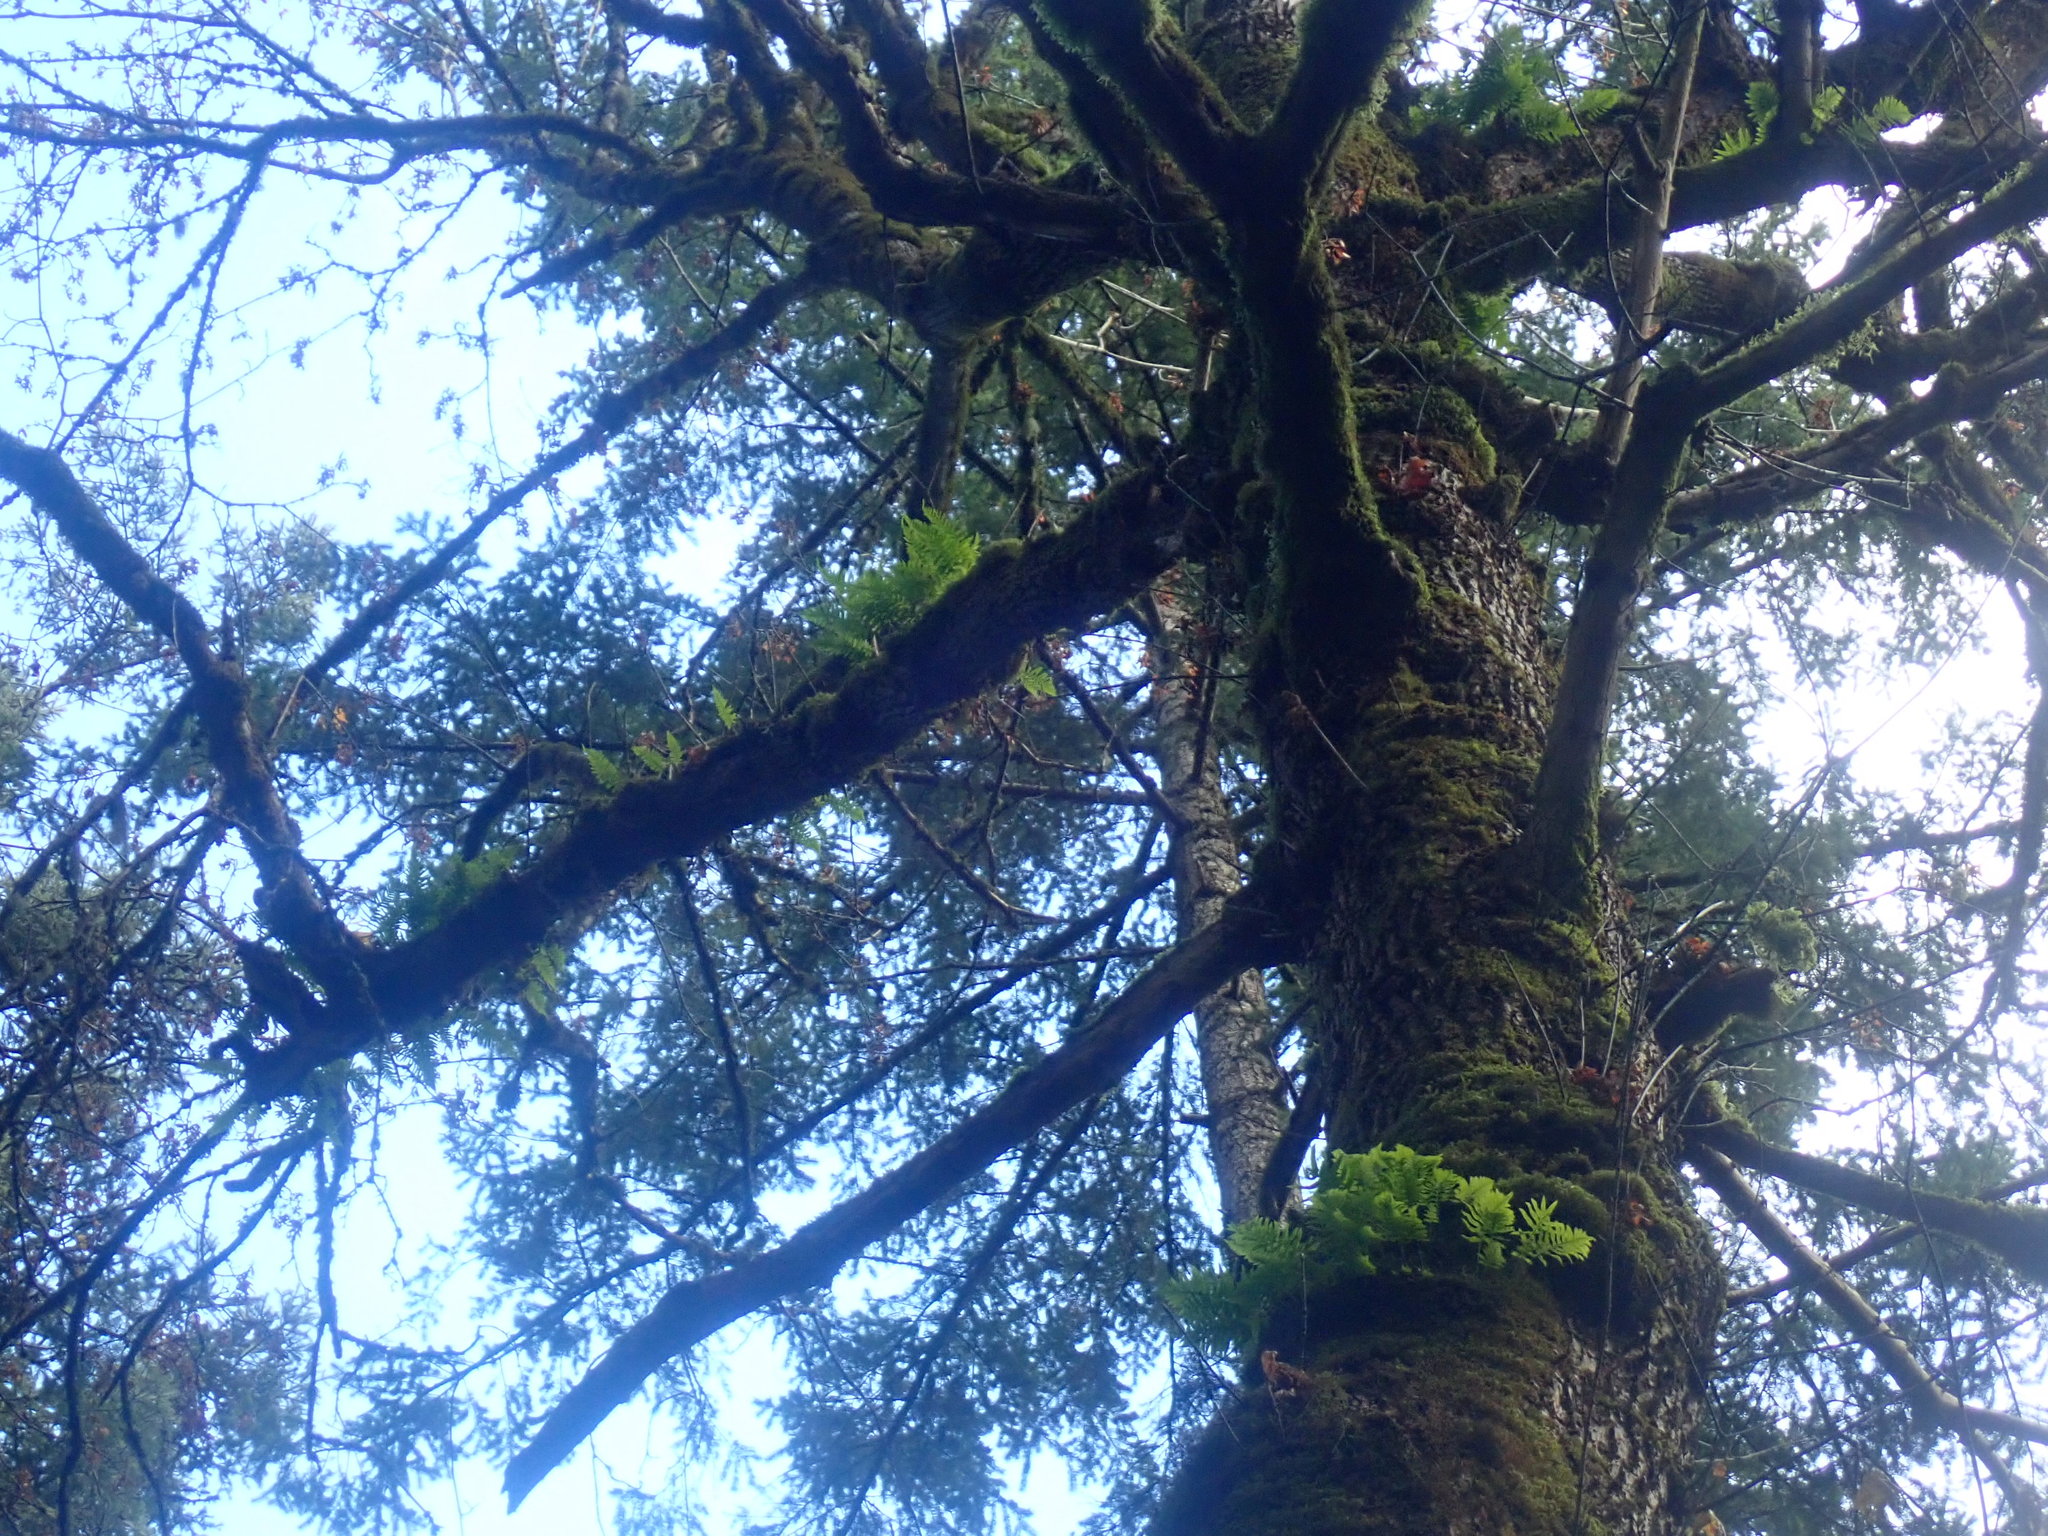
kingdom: Plantae
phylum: Tracheophyta
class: Polypodiopsida
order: Polypodiales
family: Polypodiaceae
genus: Polypodium
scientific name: Polypodium glycyrrhiza
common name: Licorice fern
